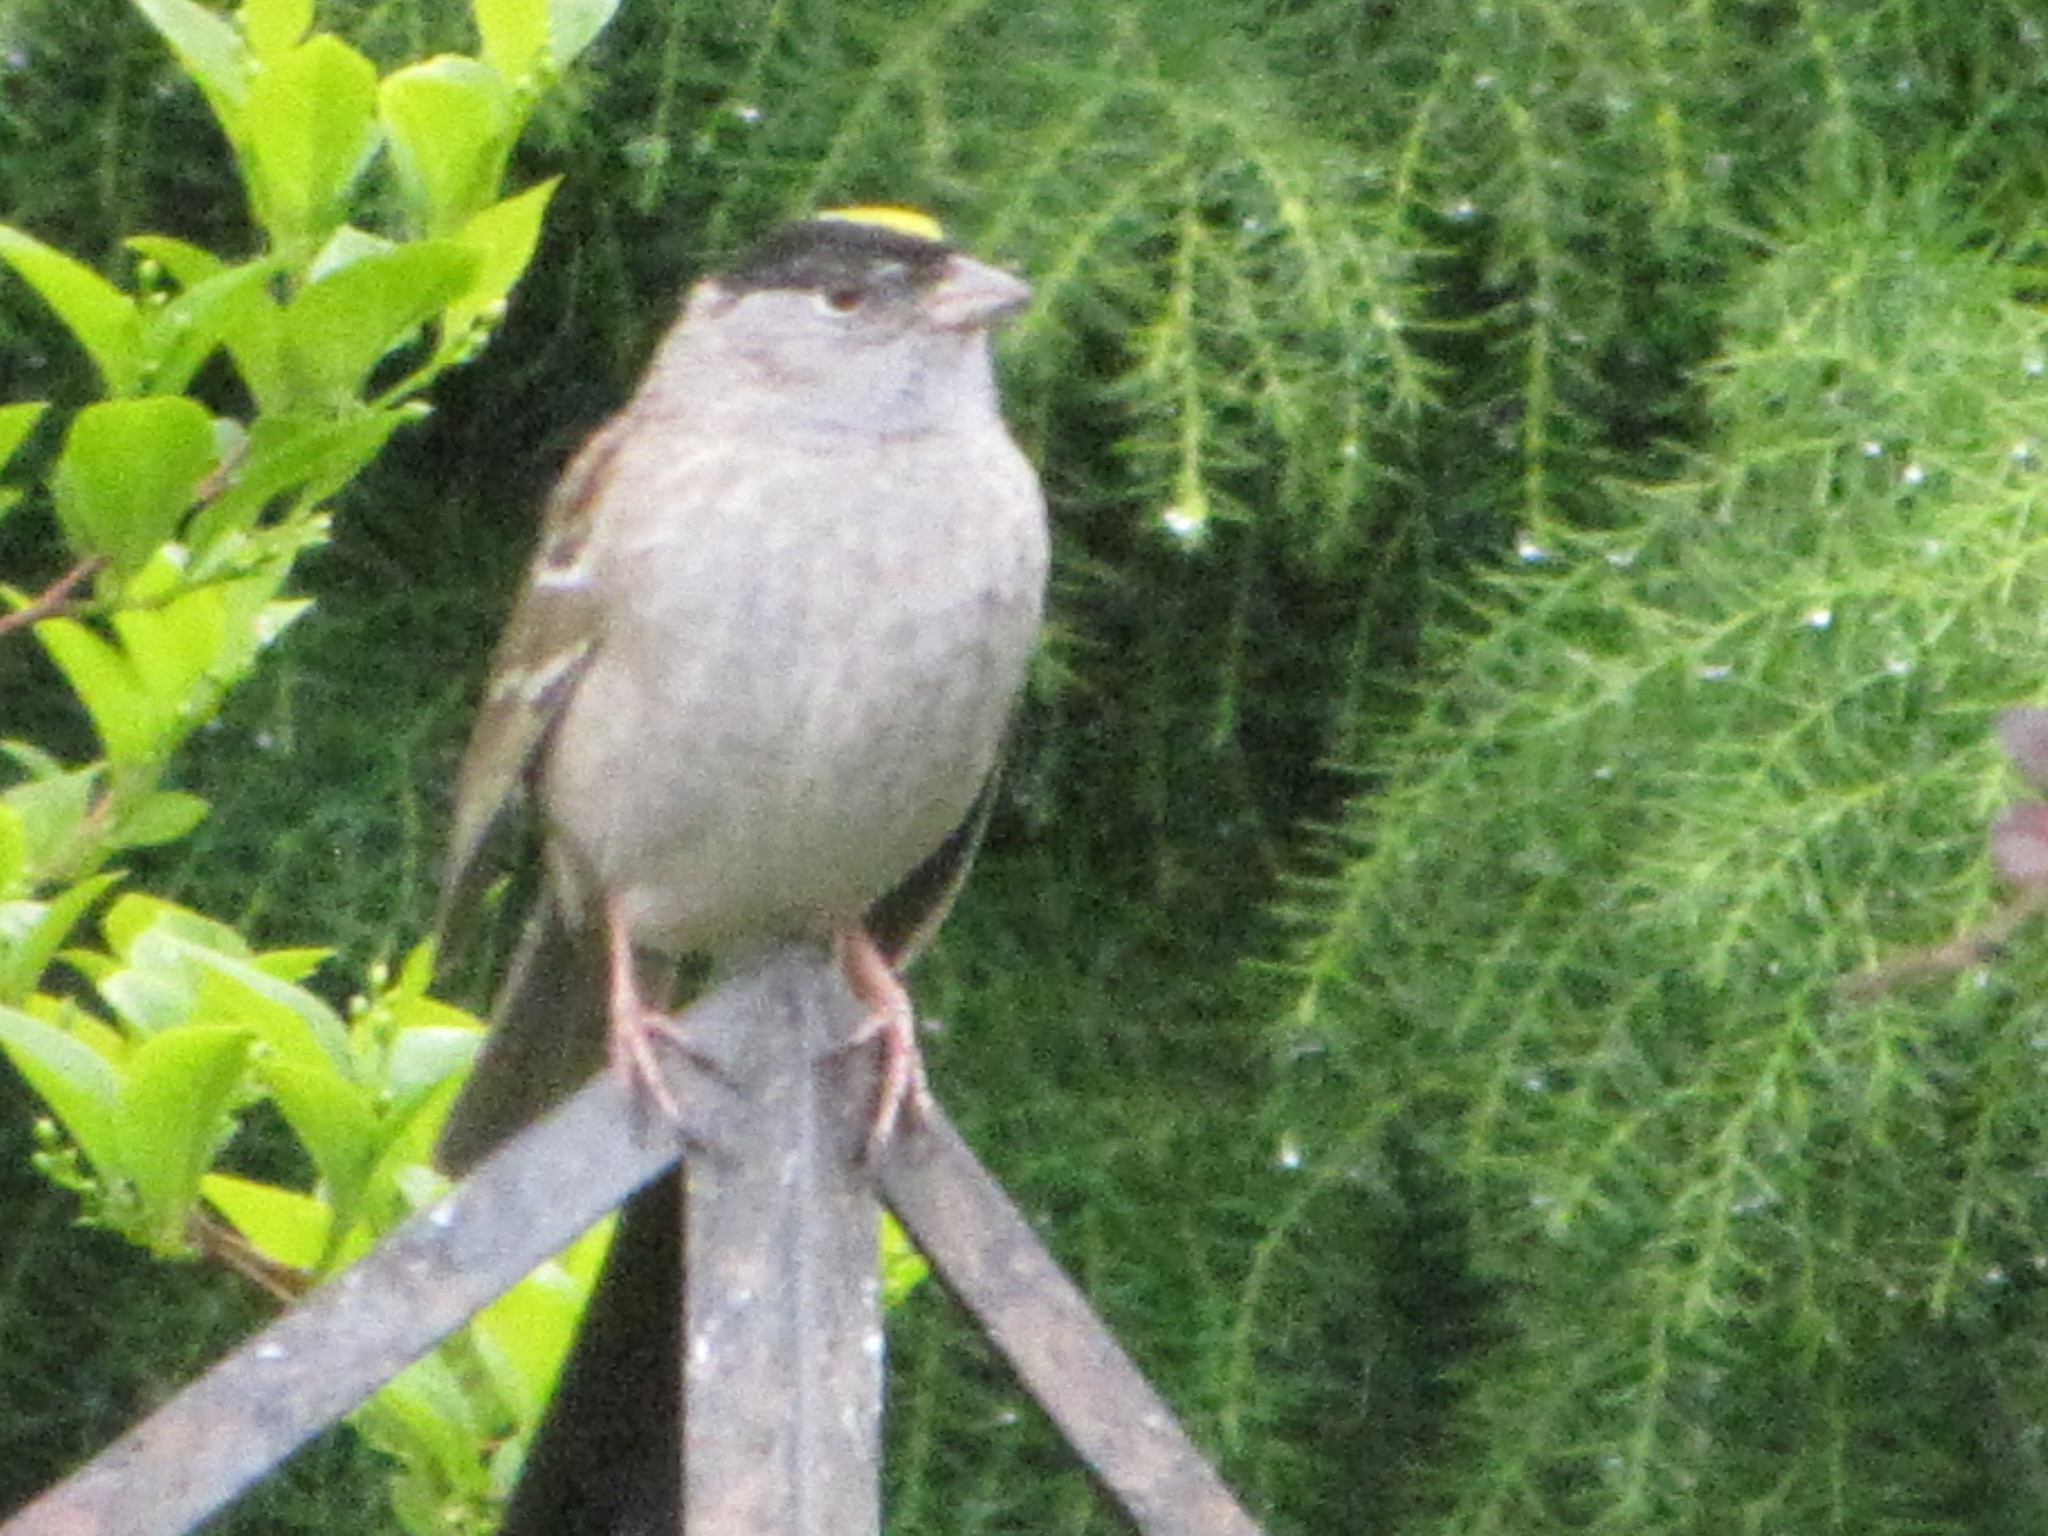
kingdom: Animalia
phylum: Chordata
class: Aves
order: Passeriformes
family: Passerellidae
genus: Zonotrichia
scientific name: Zonotrichia atricapilla
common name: Golden-crowned sparrow
